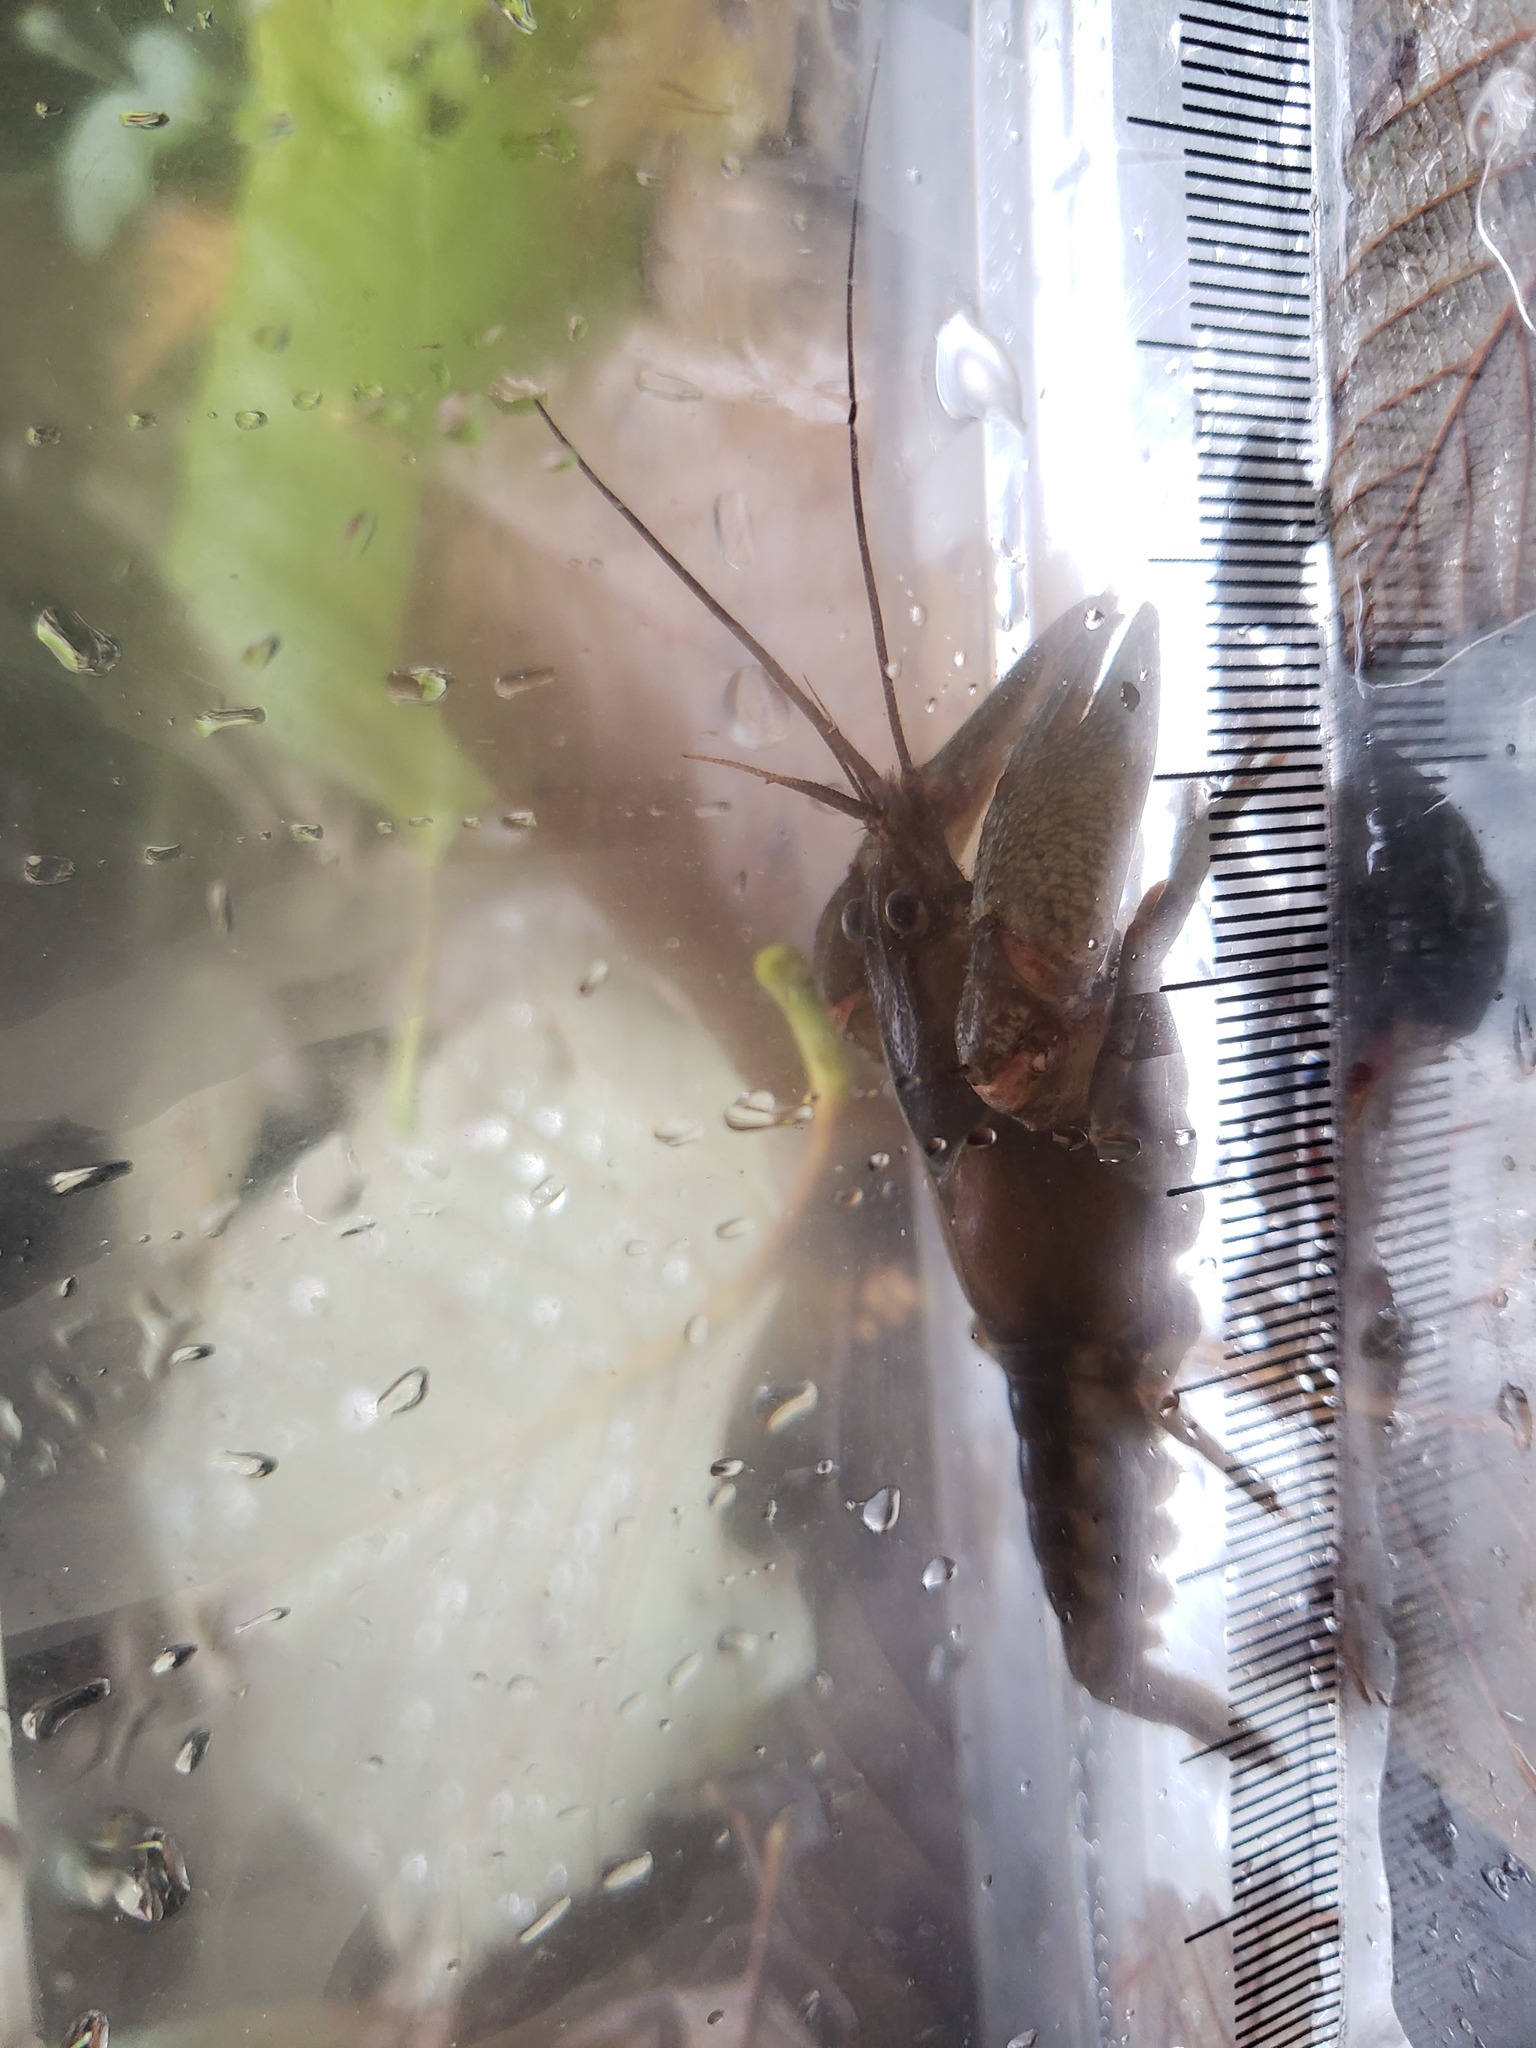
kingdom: Animalia
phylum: Arthropoda
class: Malacostraca
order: Decapoda
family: Cambaridae
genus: Faxonius
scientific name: Faxonius propinquus
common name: Northern clearwater crayfish
